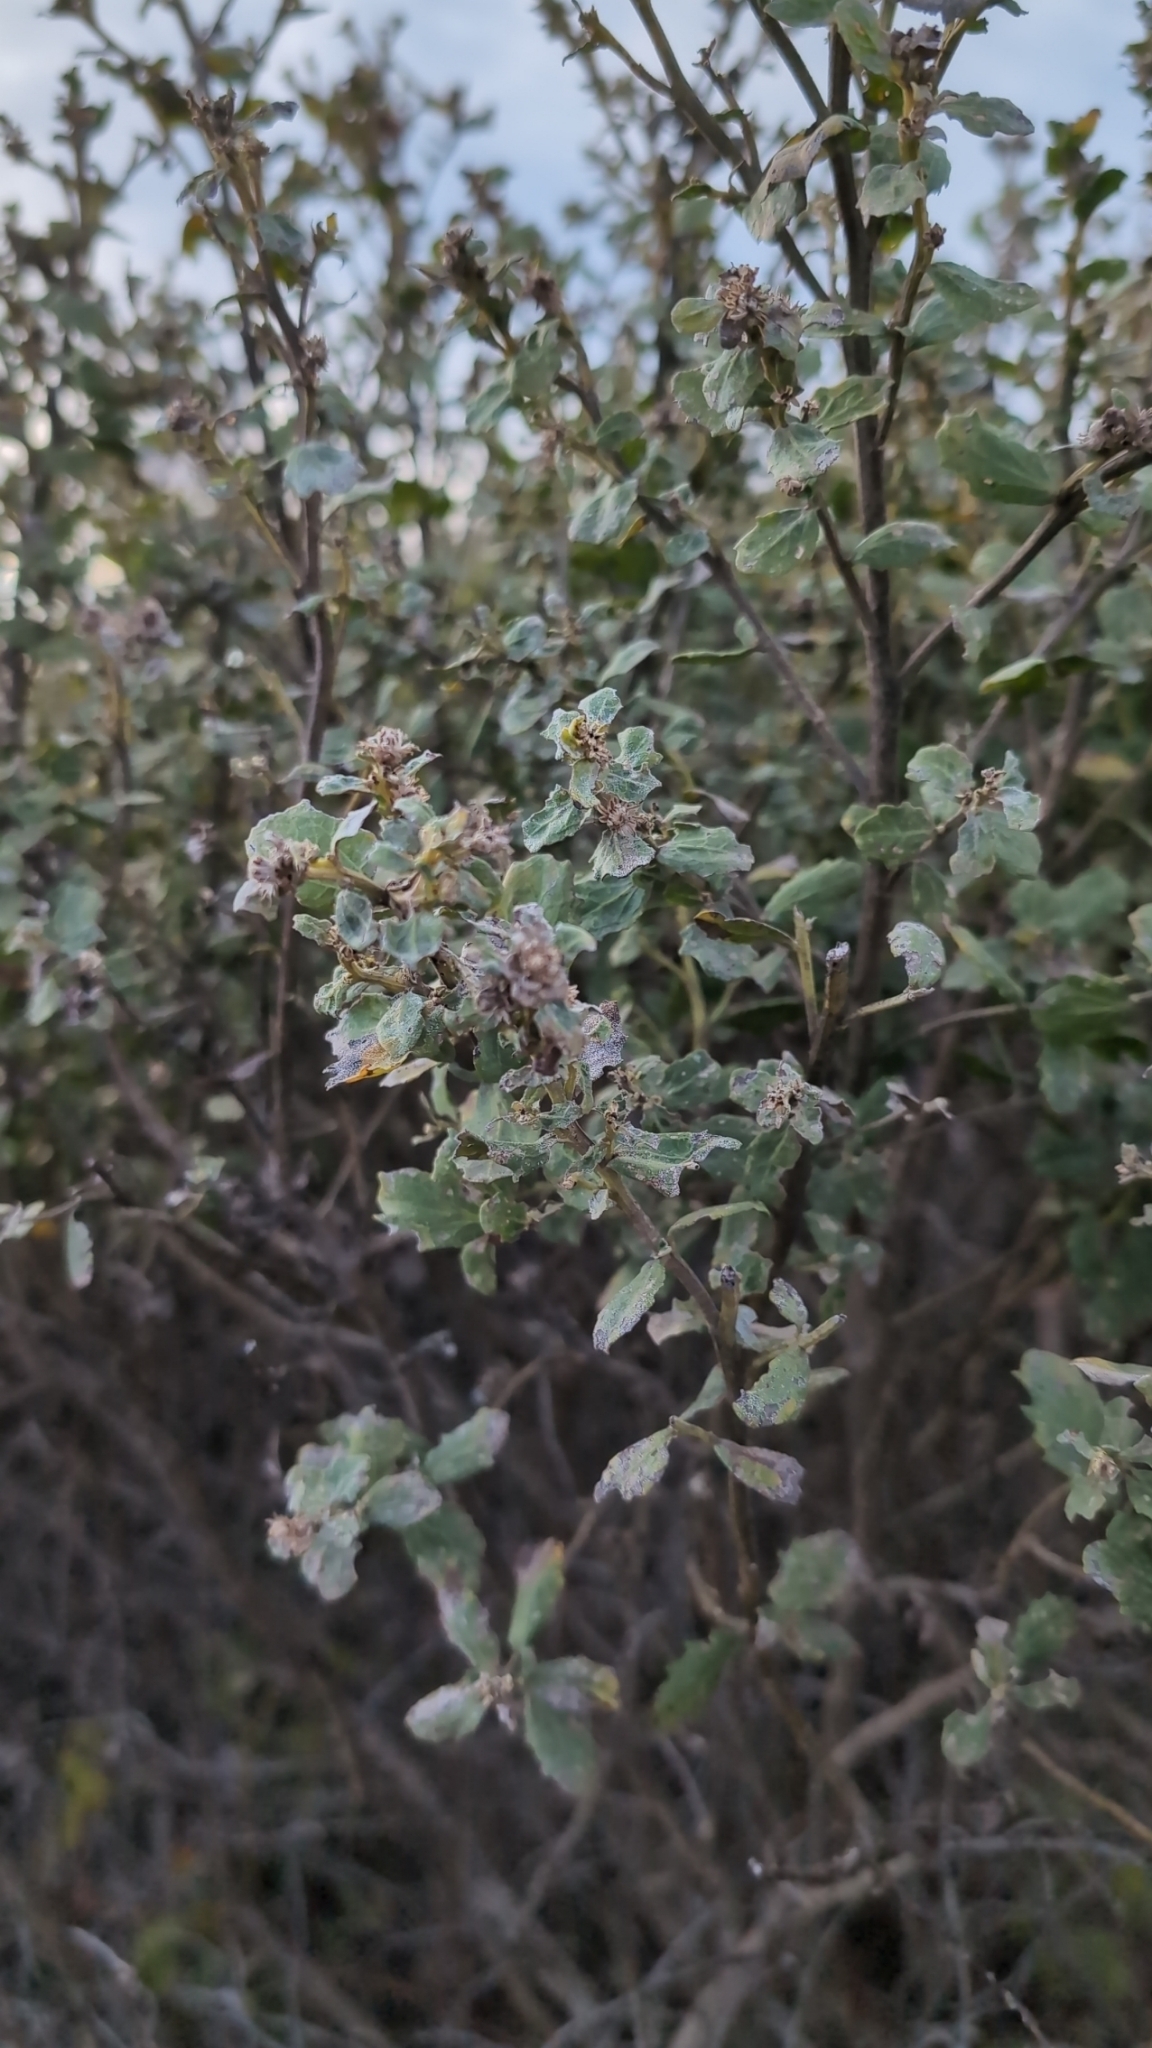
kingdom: Plantae
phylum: Tracheophyta
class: Magnoliopsida
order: Asterales
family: Asteraceae
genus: Baccharis
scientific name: Baccharis pilularis
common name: Coyotebrush
